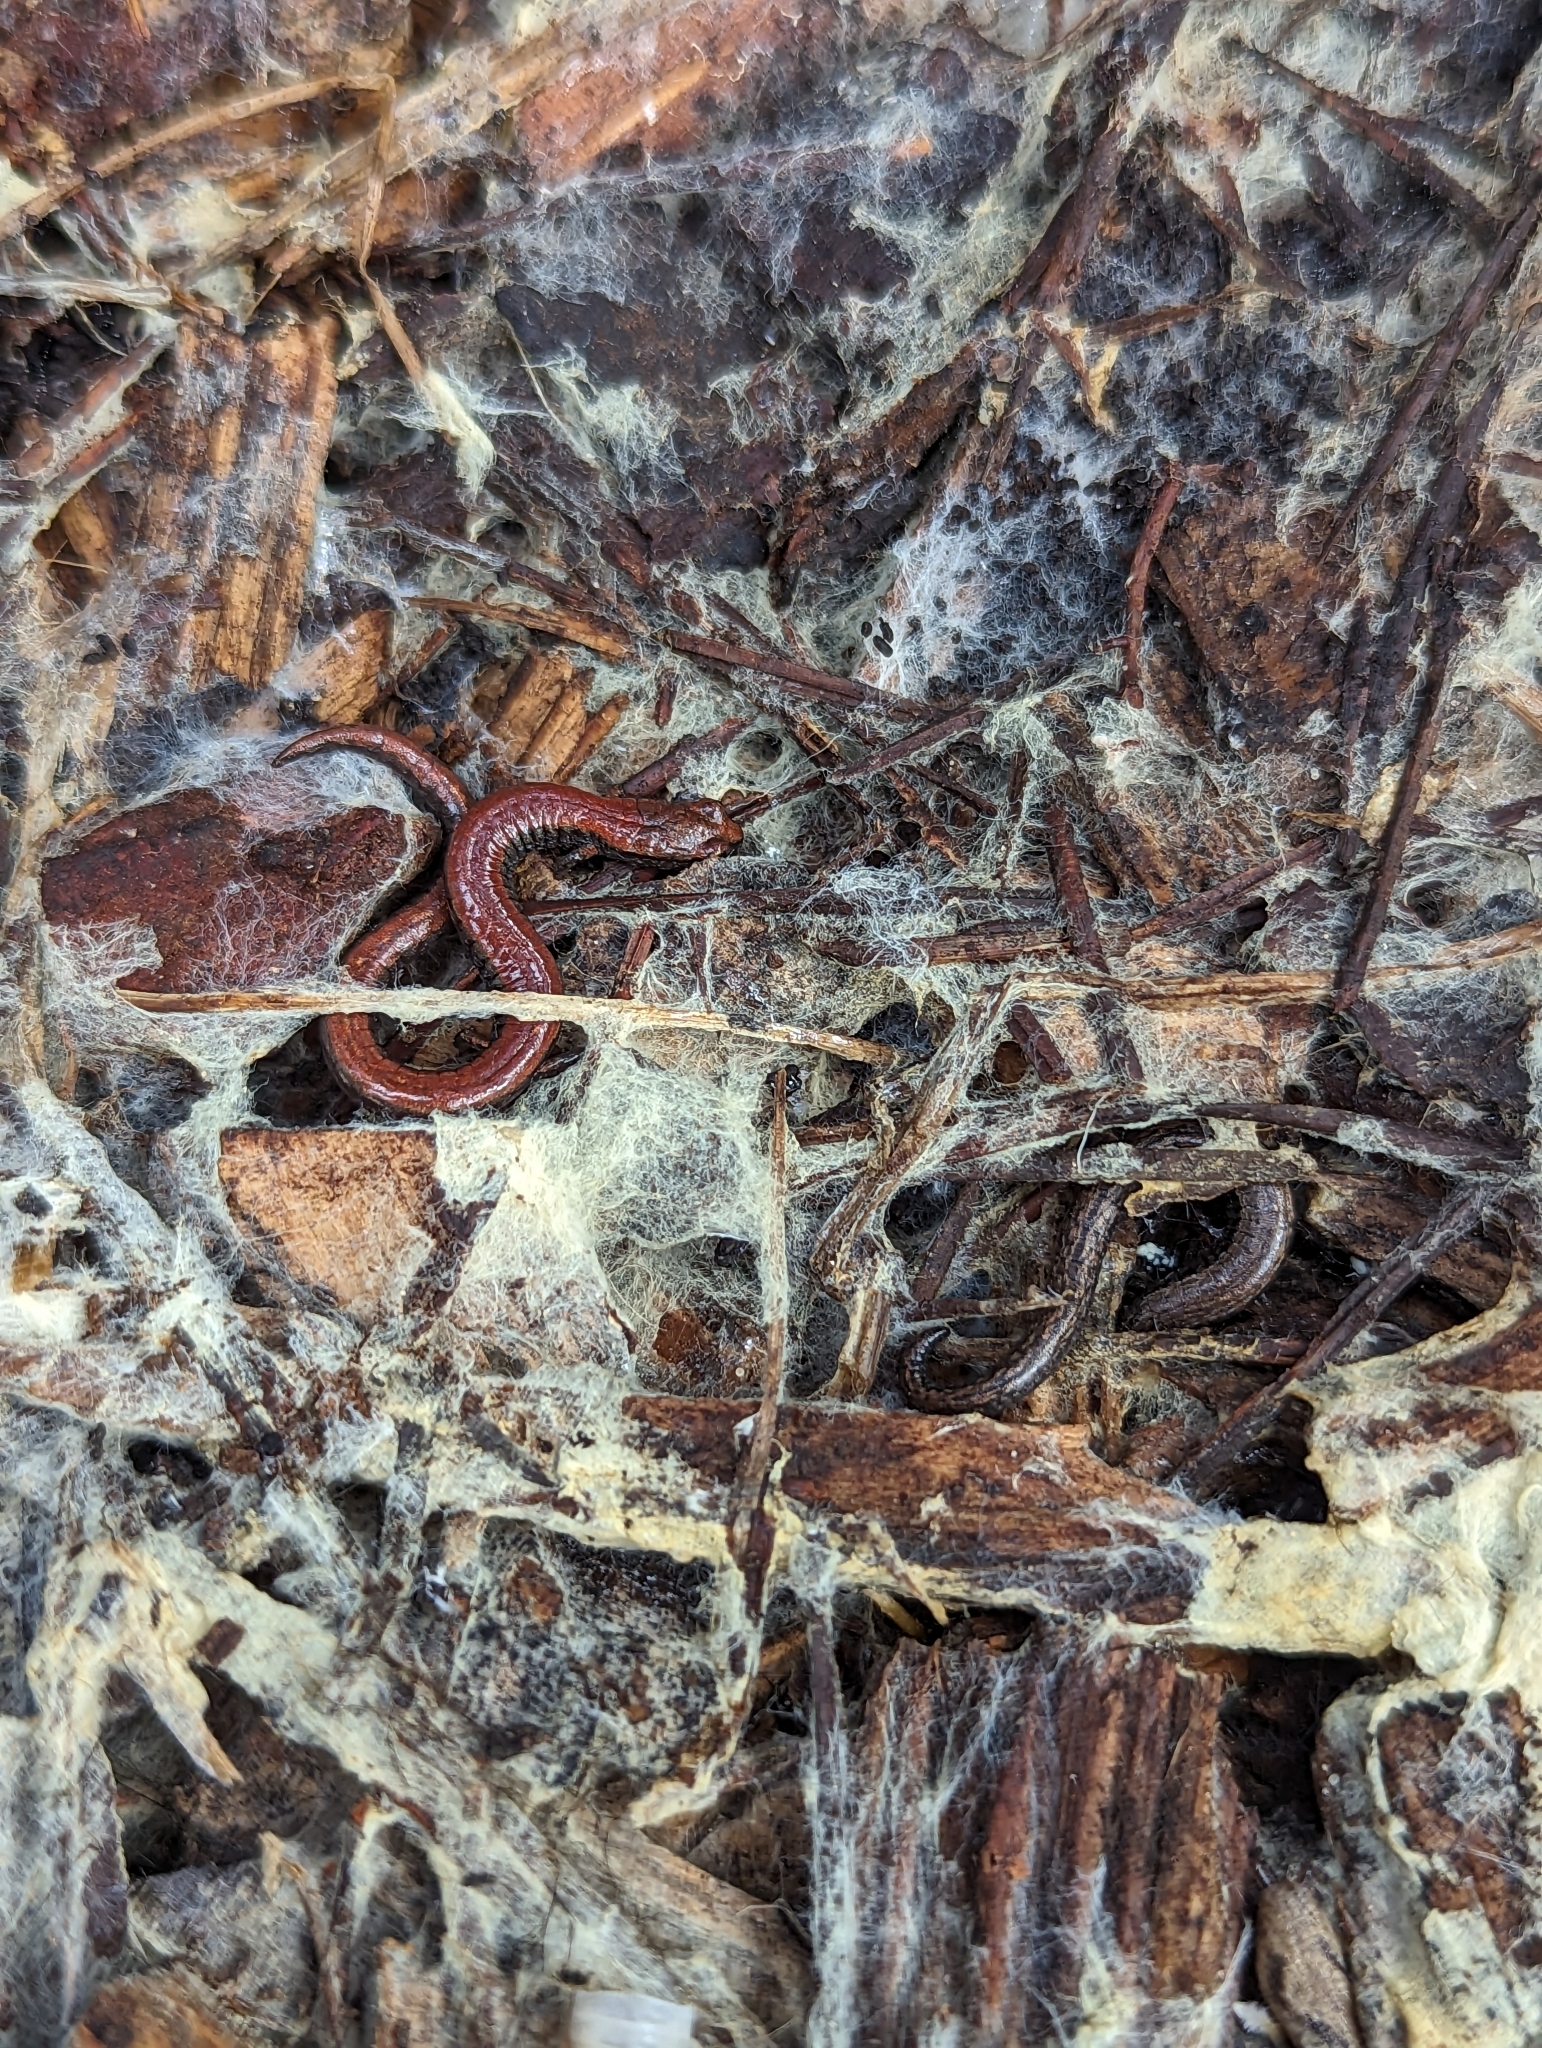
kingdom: Animalia
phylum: Chordata
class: Amphibia
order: Caudata
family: Plethodontidae
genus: Batrachoseps
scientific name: Batrachoseps nigriventris
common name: Black-bellied slender salamander
